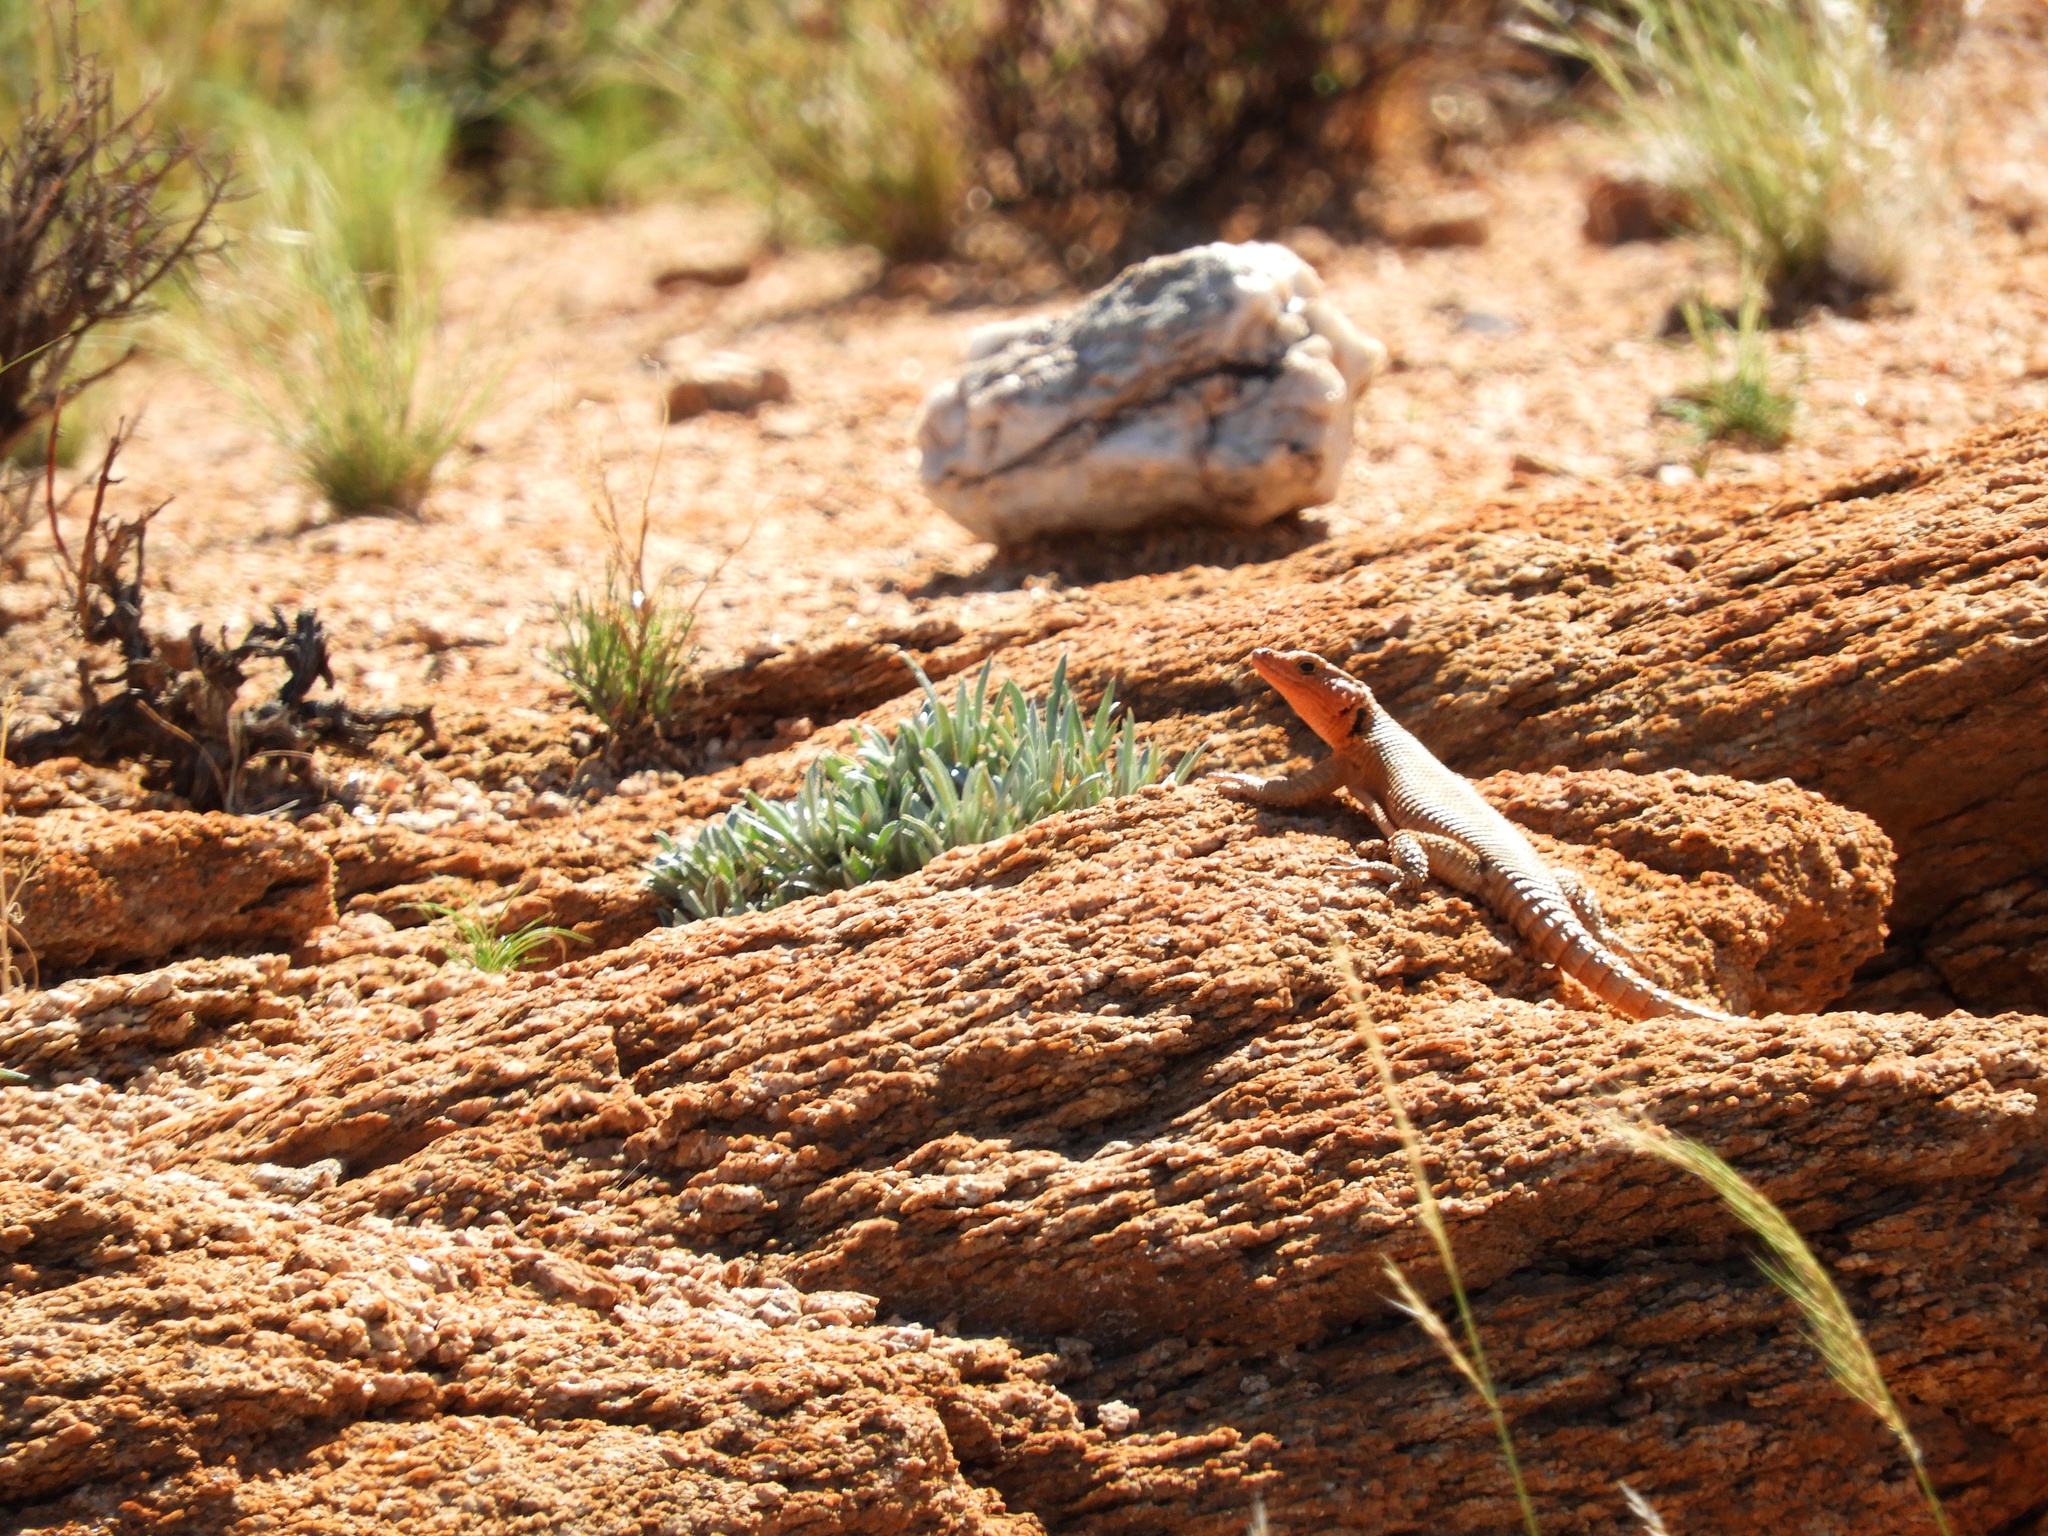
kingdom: Animalia
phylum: Chordata
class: Squamata
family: Cordylidae
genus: Karusasaurus
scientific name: Karusasaurus polyzonus
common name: Karoo girdled lizard
